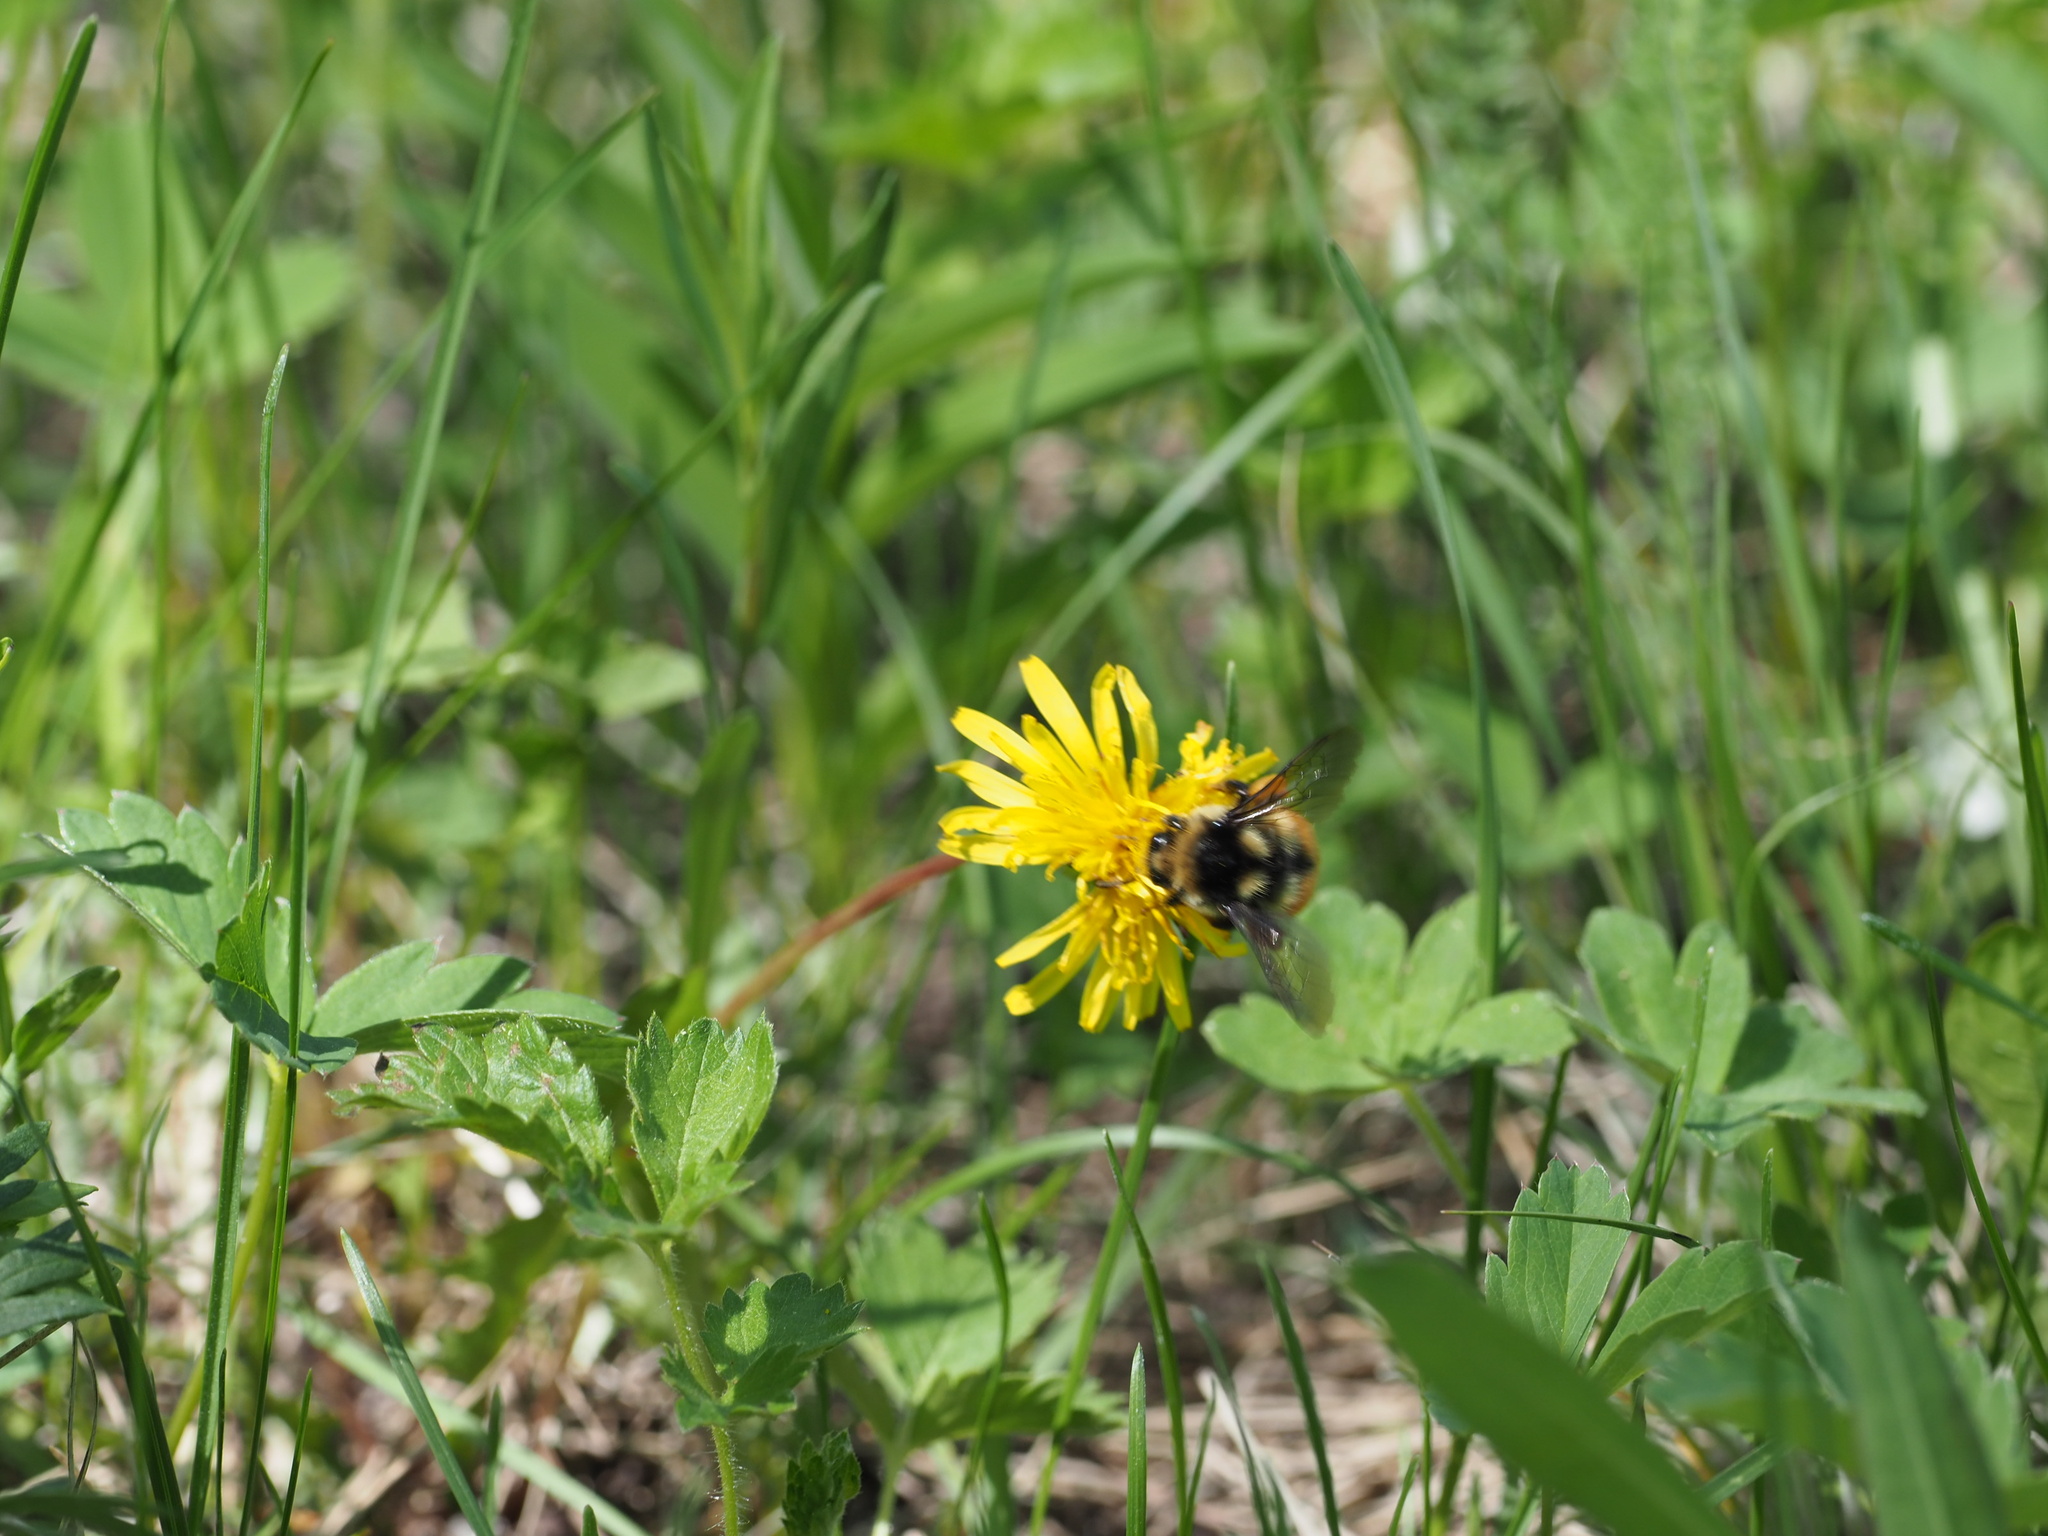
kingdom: Animalia
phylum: Arthropoda
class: Insecta
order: Hymenoptera
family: Apidae
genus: Bombus
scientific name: Bombus vancouverensis
